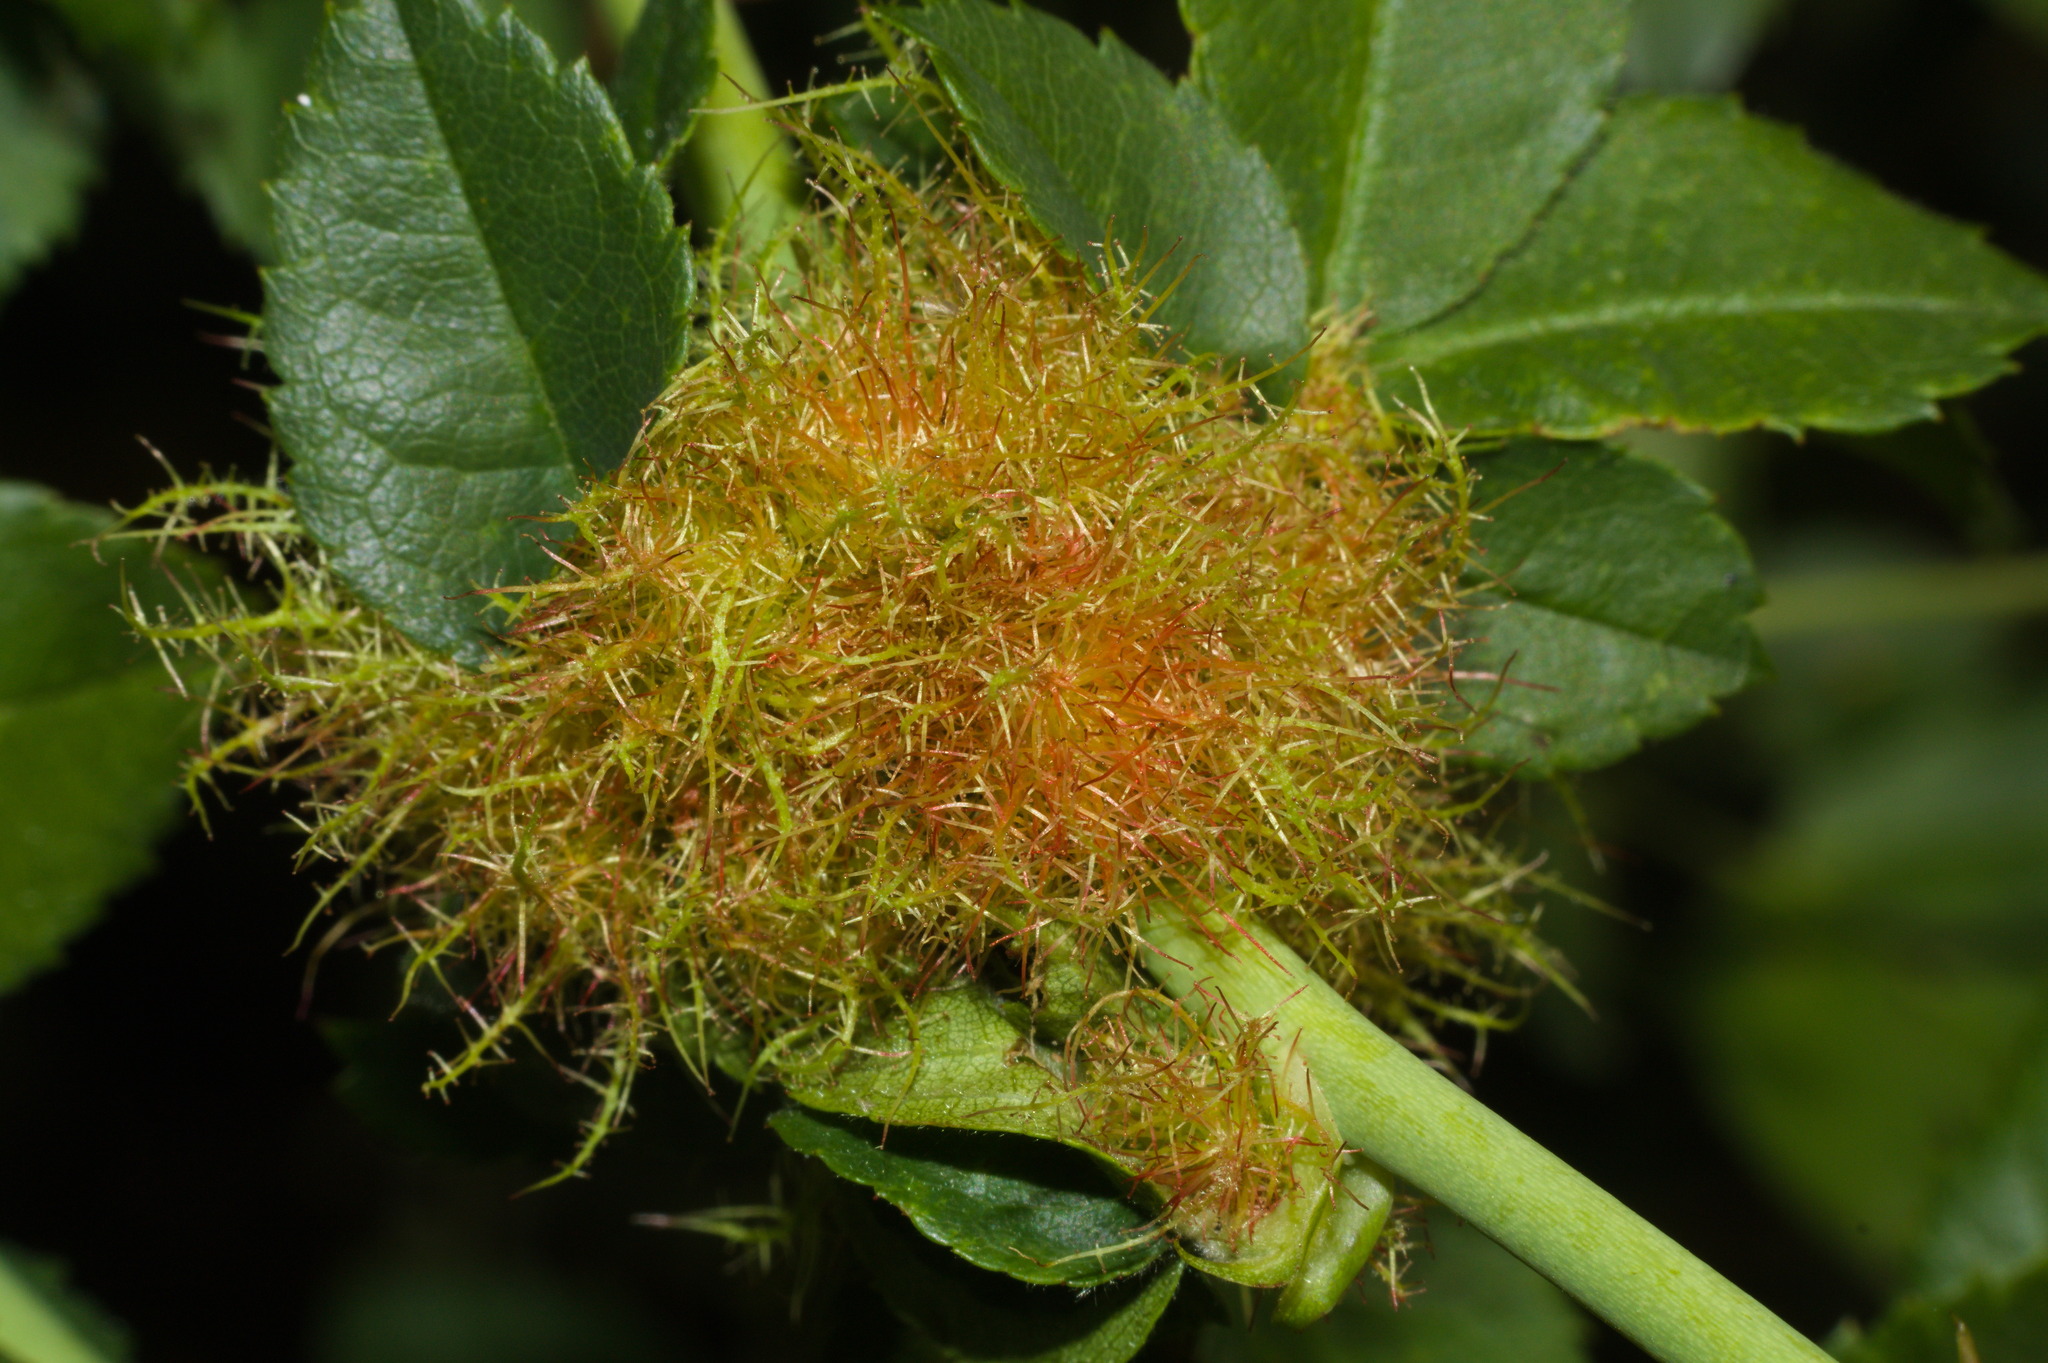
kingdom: Animalia
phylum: Arthropoda
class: Insecta
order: Hymenoptera
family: Cynipidae
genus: Diplolepis
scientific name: Diplolepis rosae
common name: Bedeguar gall
